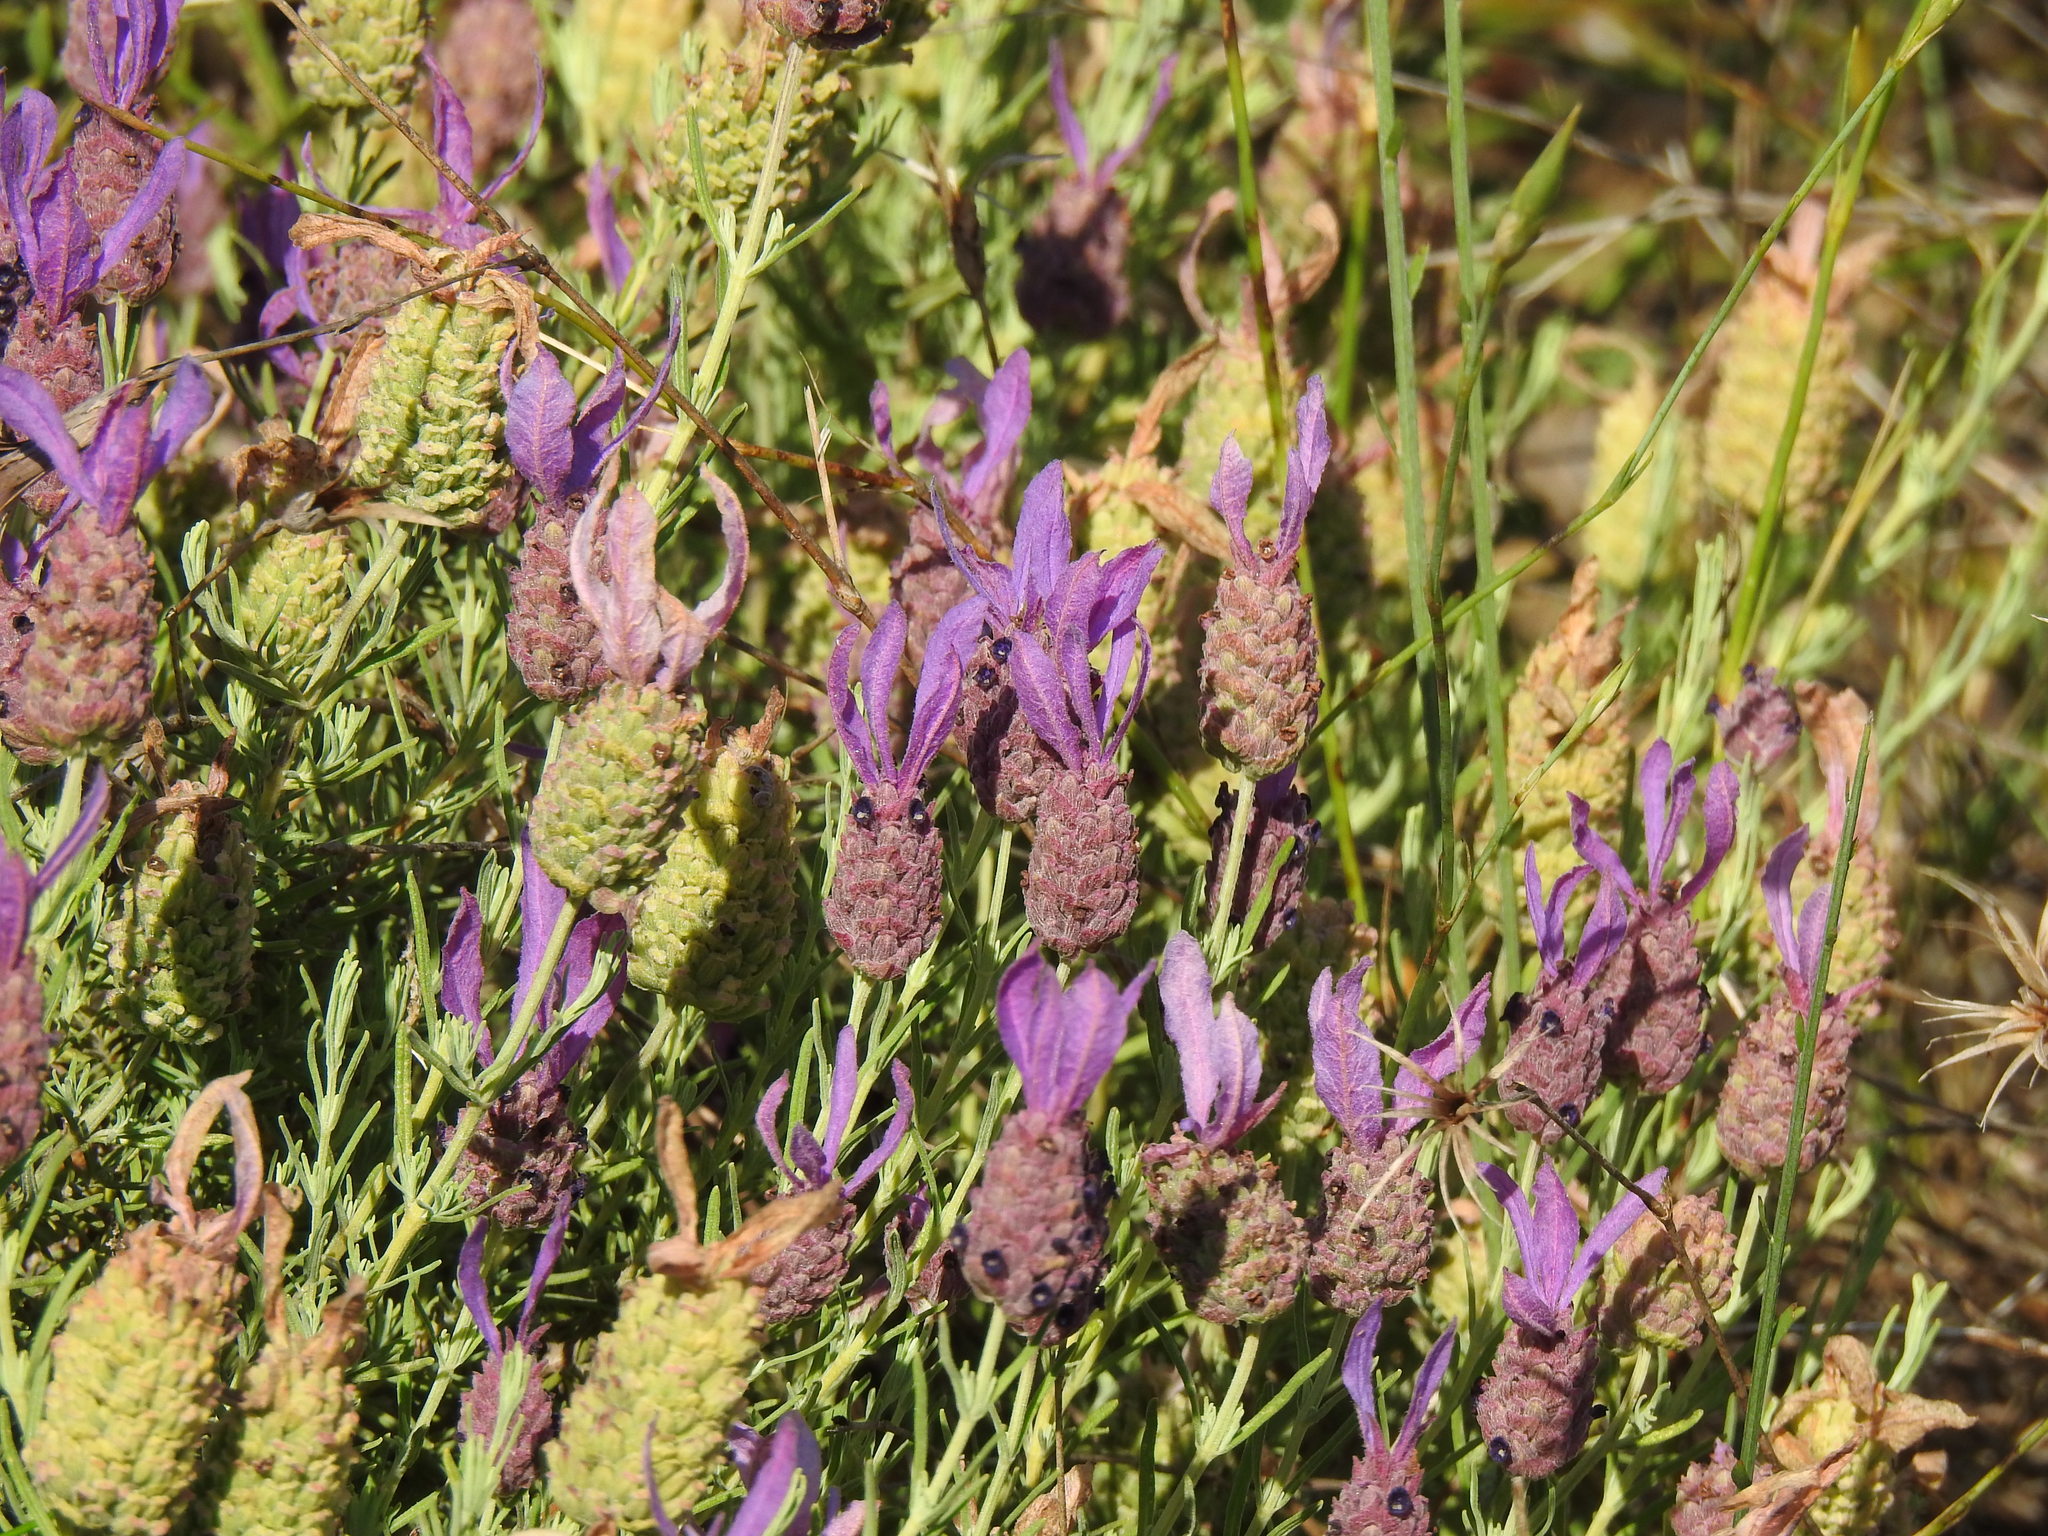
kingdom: Plantae
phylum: Tracheophyta
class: Magnoliopsida
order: Lamiales
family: Lamiaceae
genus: Lavandula
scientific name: Lavandula stoechas
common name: French lavender
